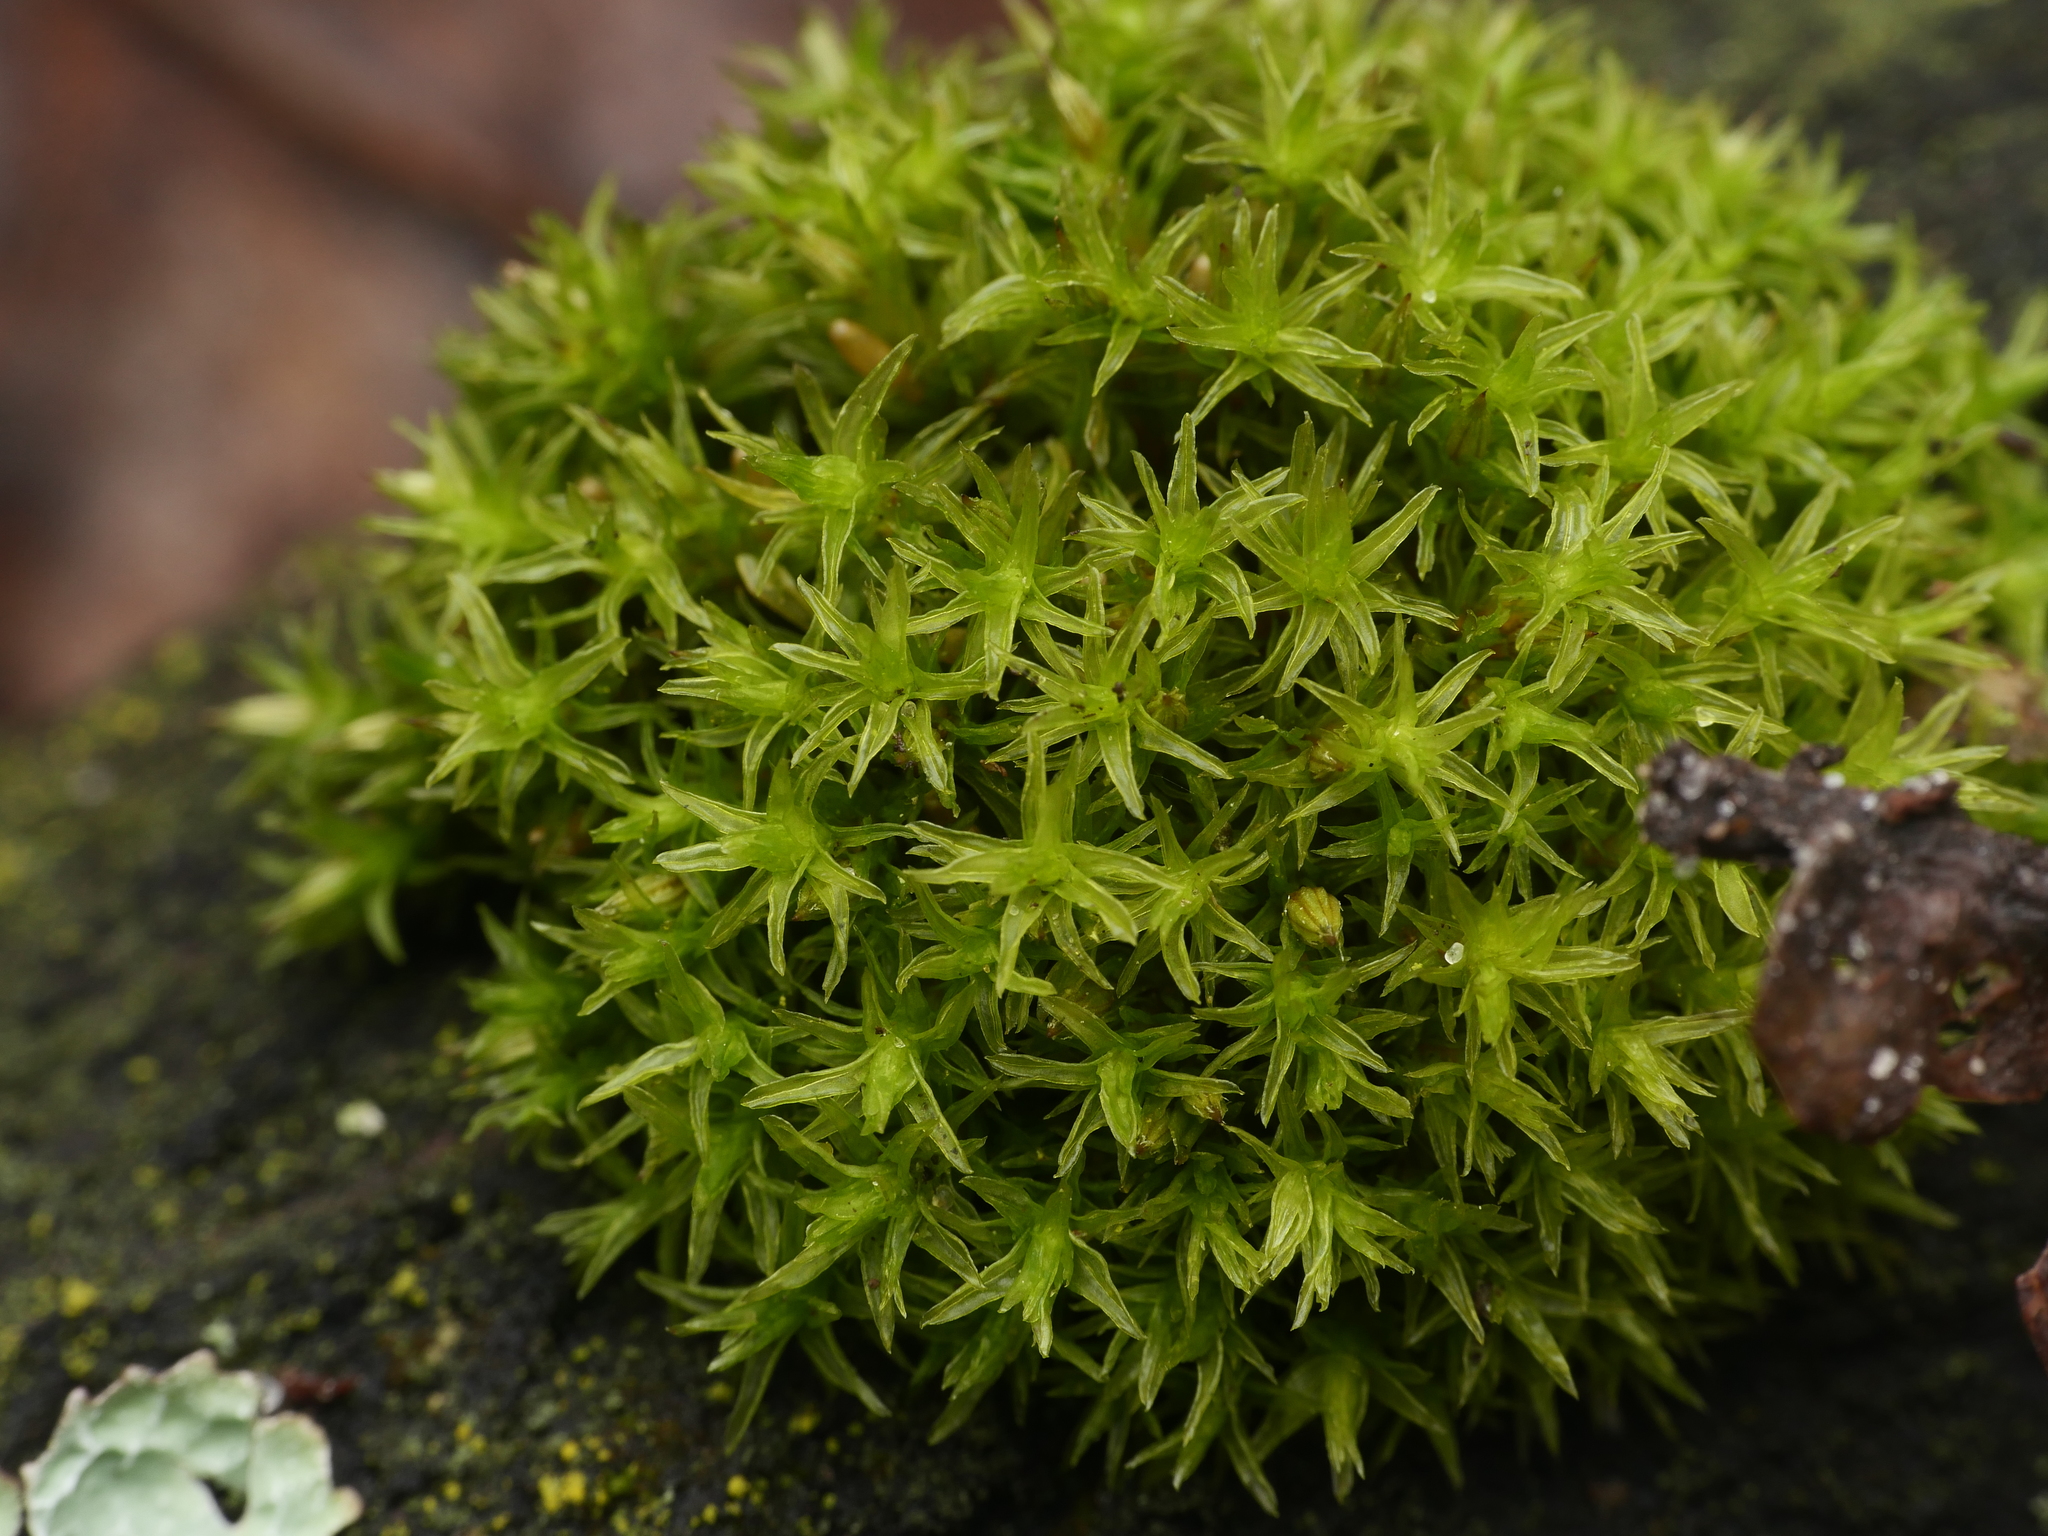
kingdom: Plantae
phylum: Bryophyta
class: Bryopsida
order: Orthotrichales
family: Orthotrichaceae
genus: Lewinskya
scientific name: Lewinskya affinis
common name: Wood bristle-moss
